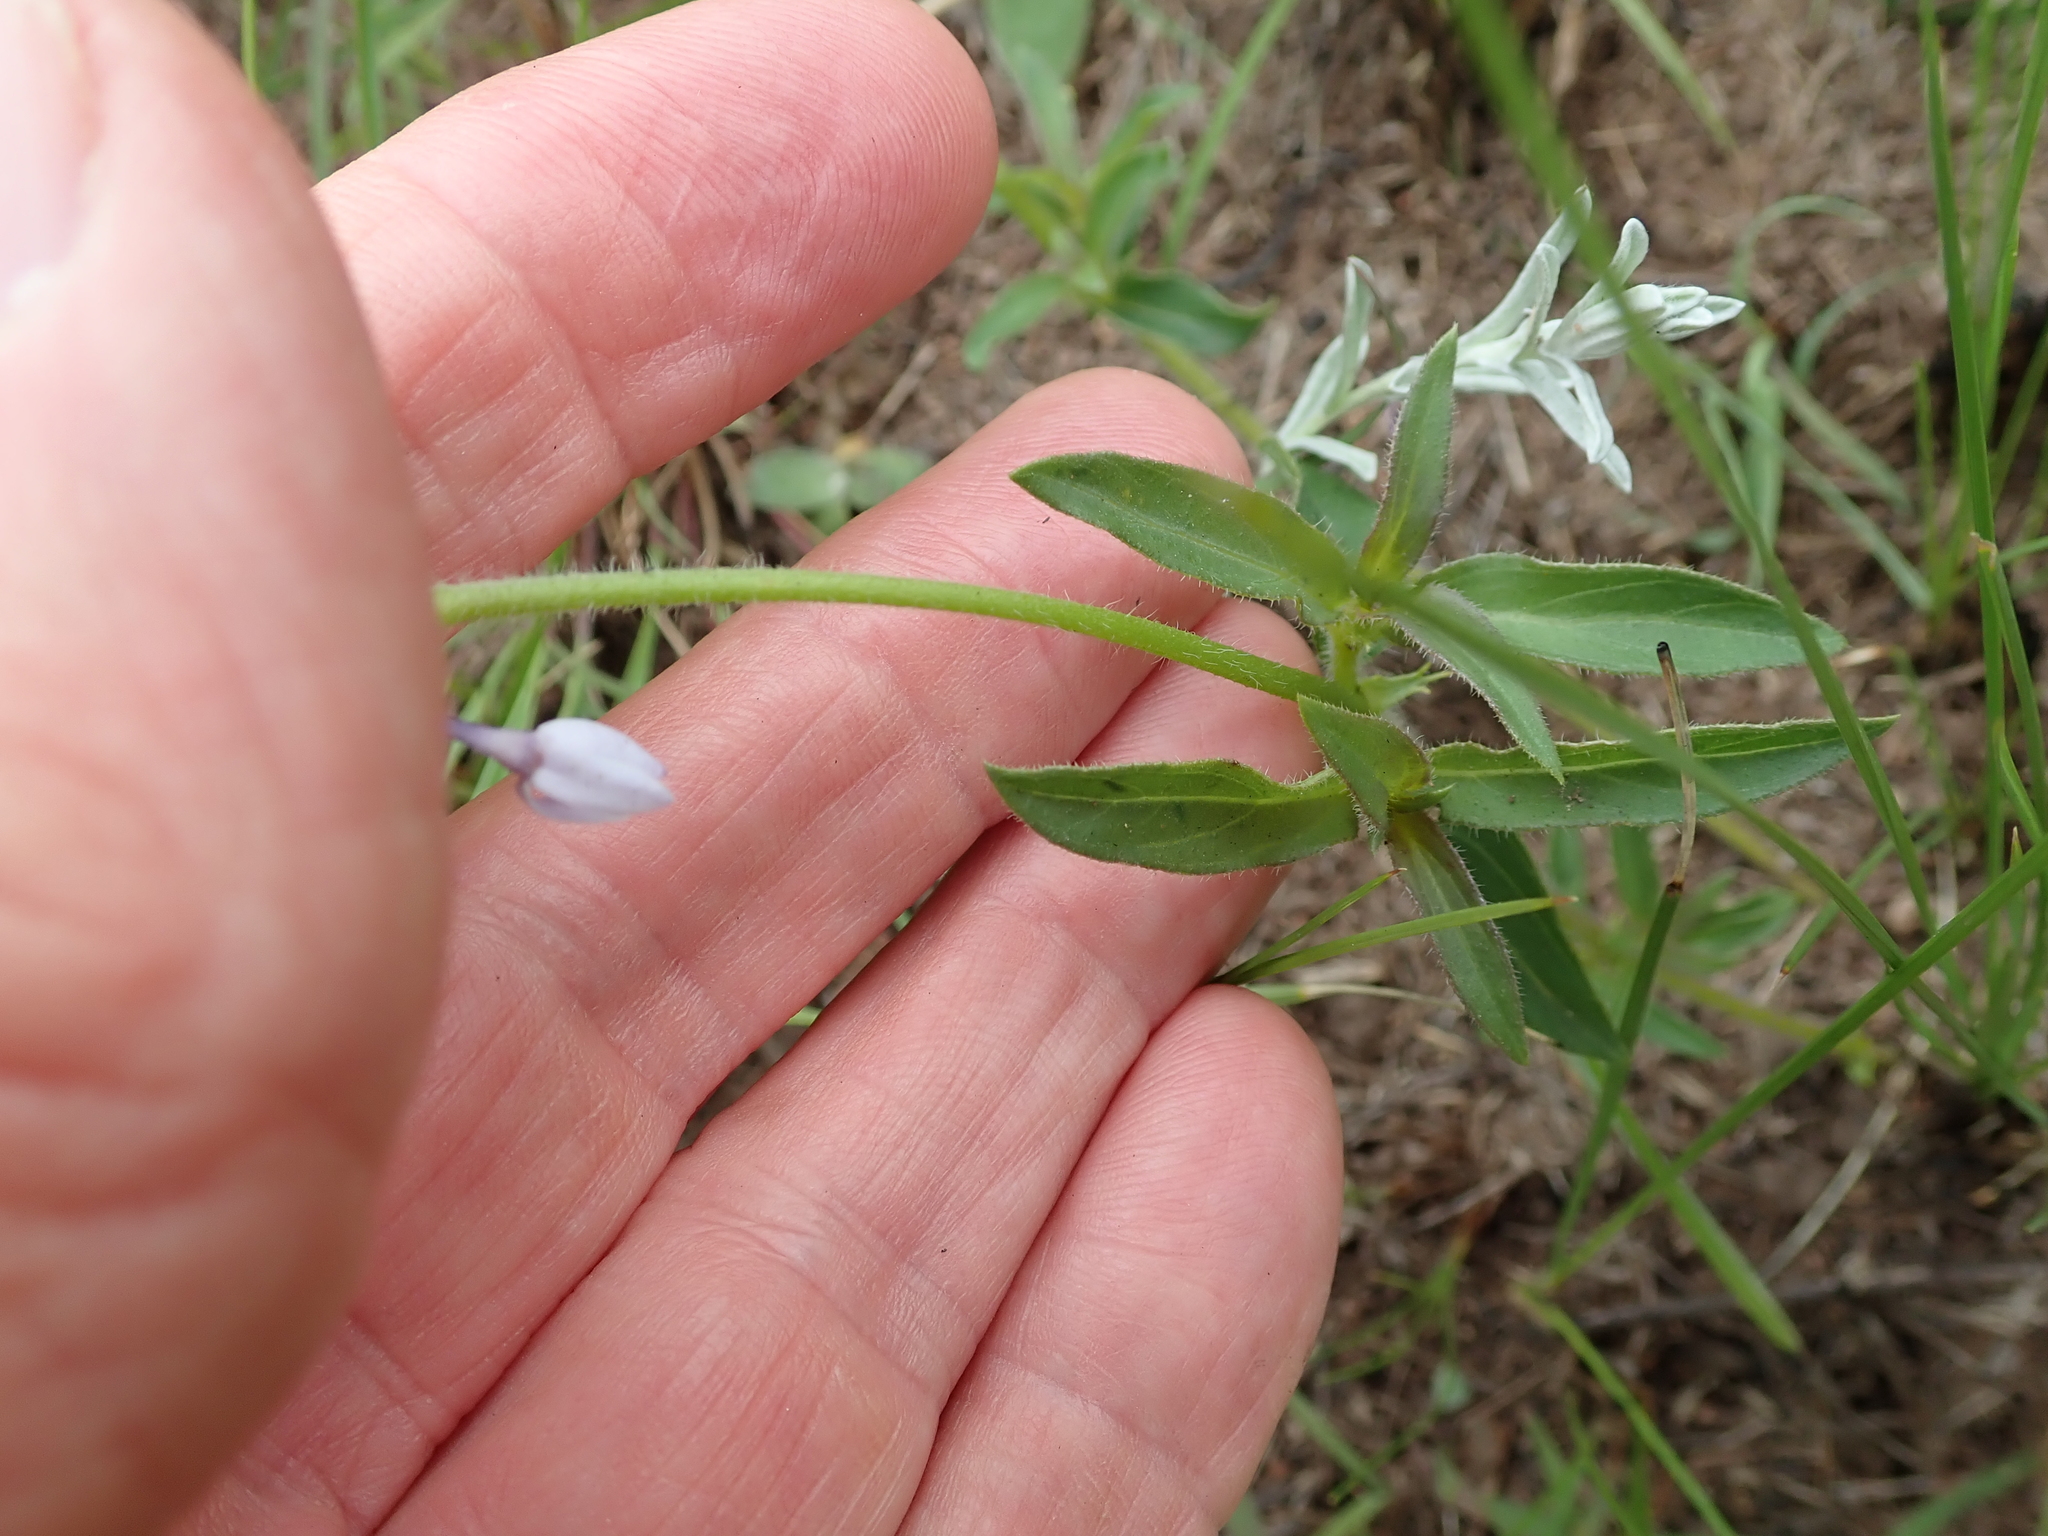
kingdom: Plantae
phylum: Tracheophyta
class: Magnoliopsida
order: Gentianales
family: Rubiaceae
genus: Pentanisia
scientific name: Pentanisia prunelloides
